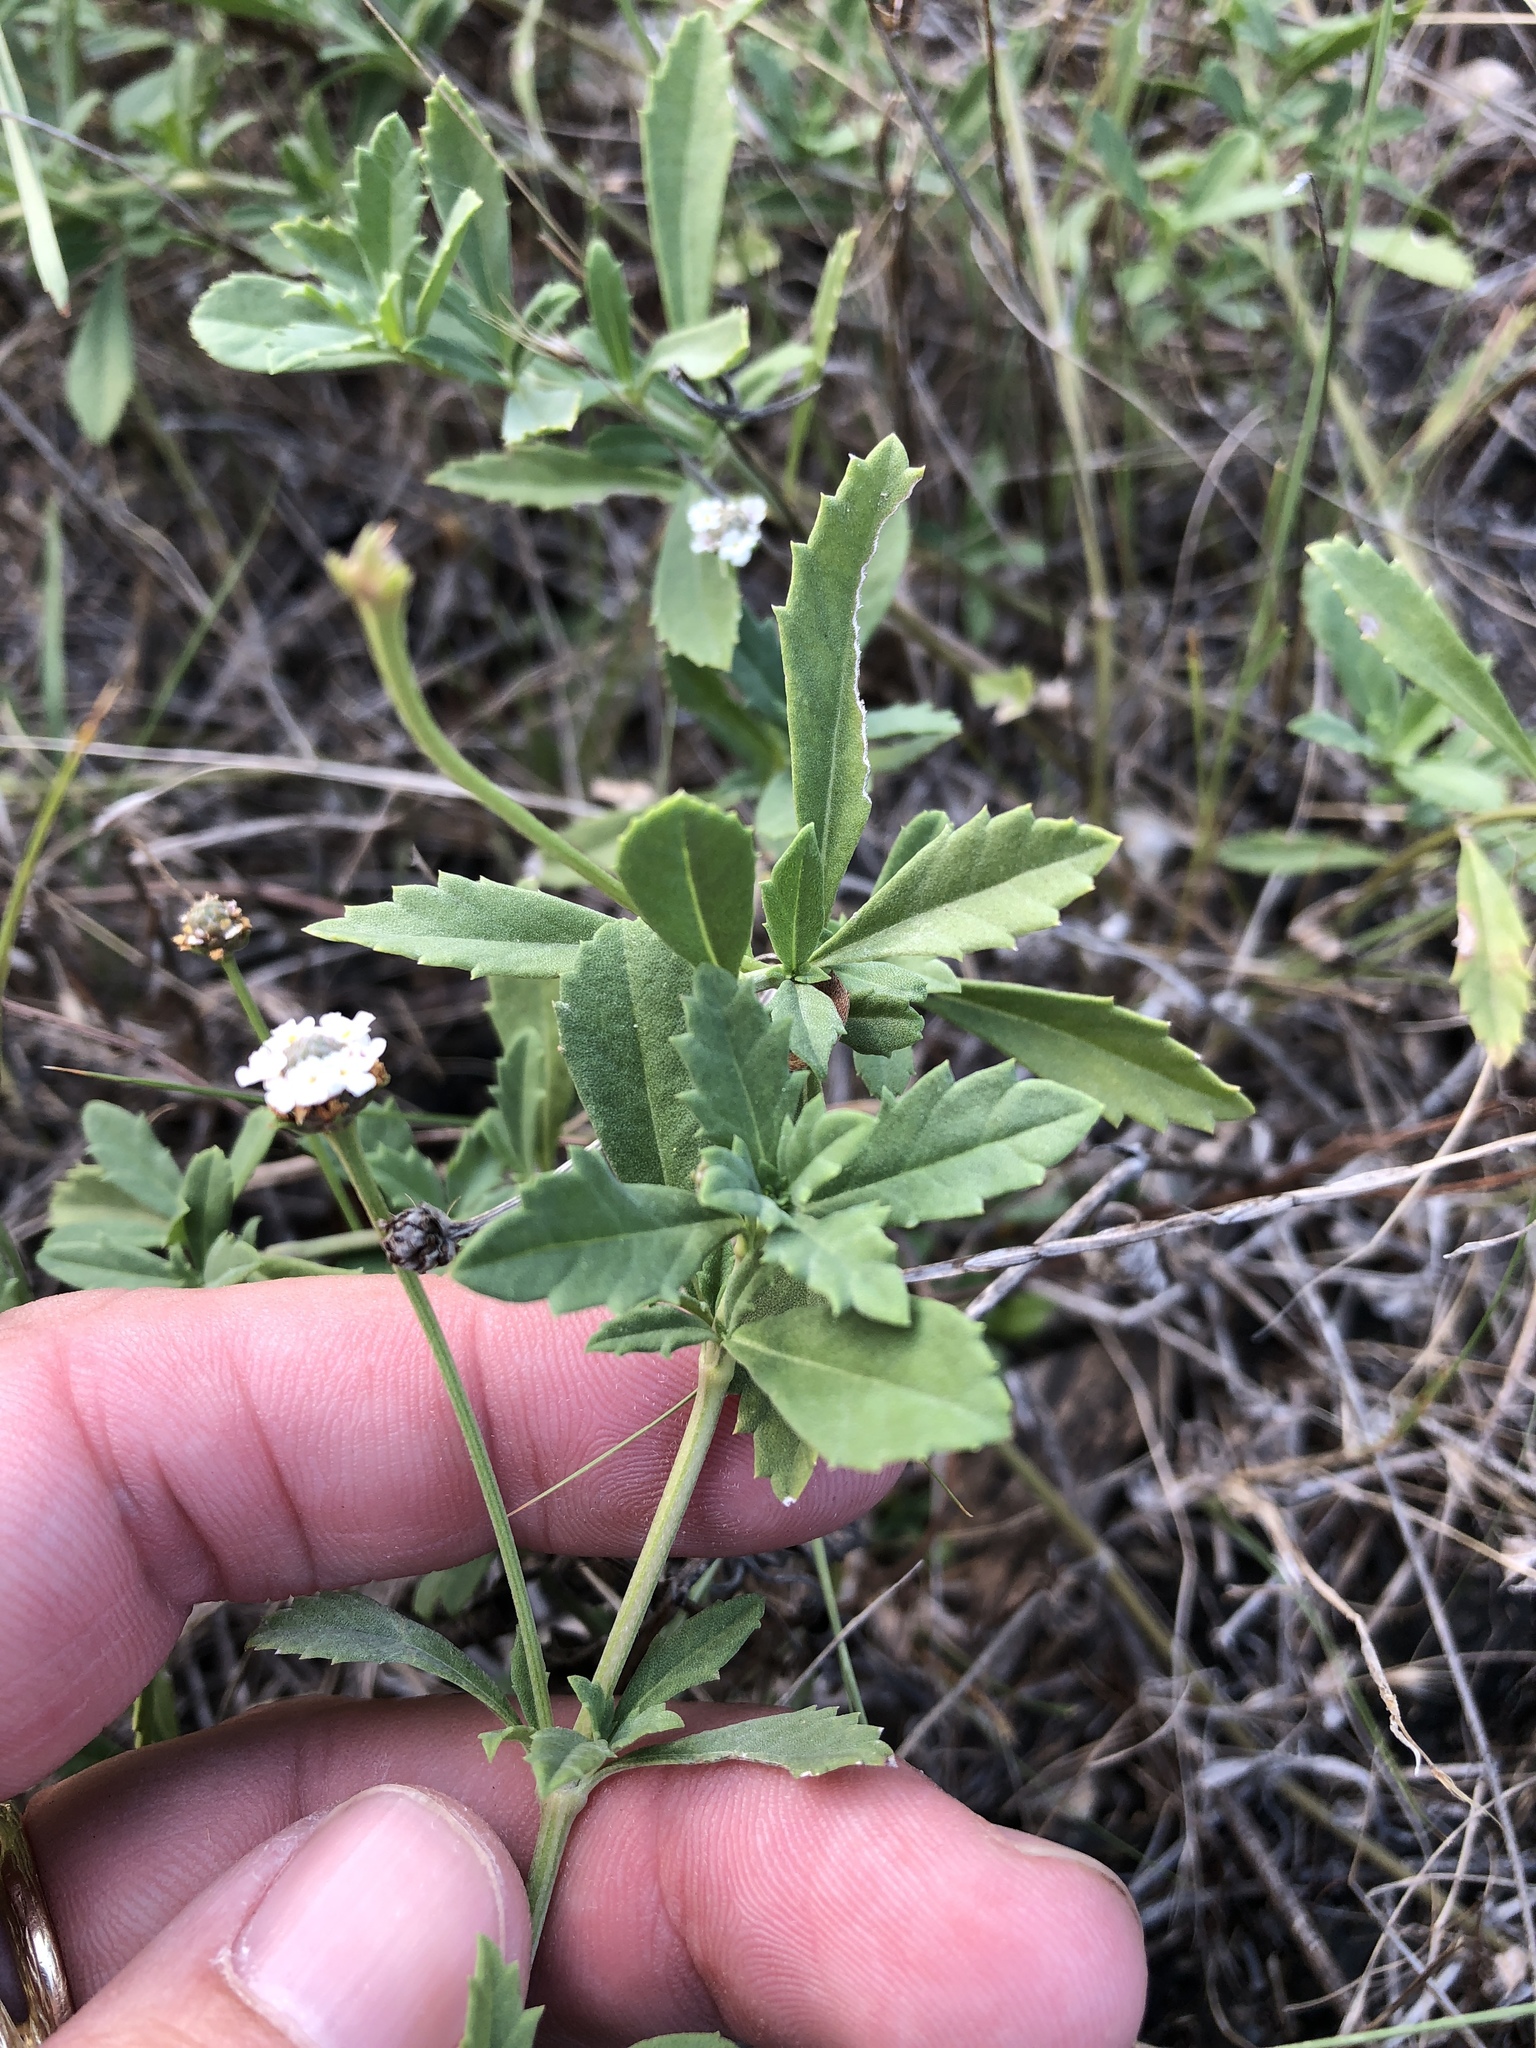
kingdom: Plantae
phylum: Tracheophyta
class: Magnoliopsida
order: Lamiales
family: Verbenaceae
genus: Phyla
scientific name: Phyla nodiflora
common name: Frogfruit
